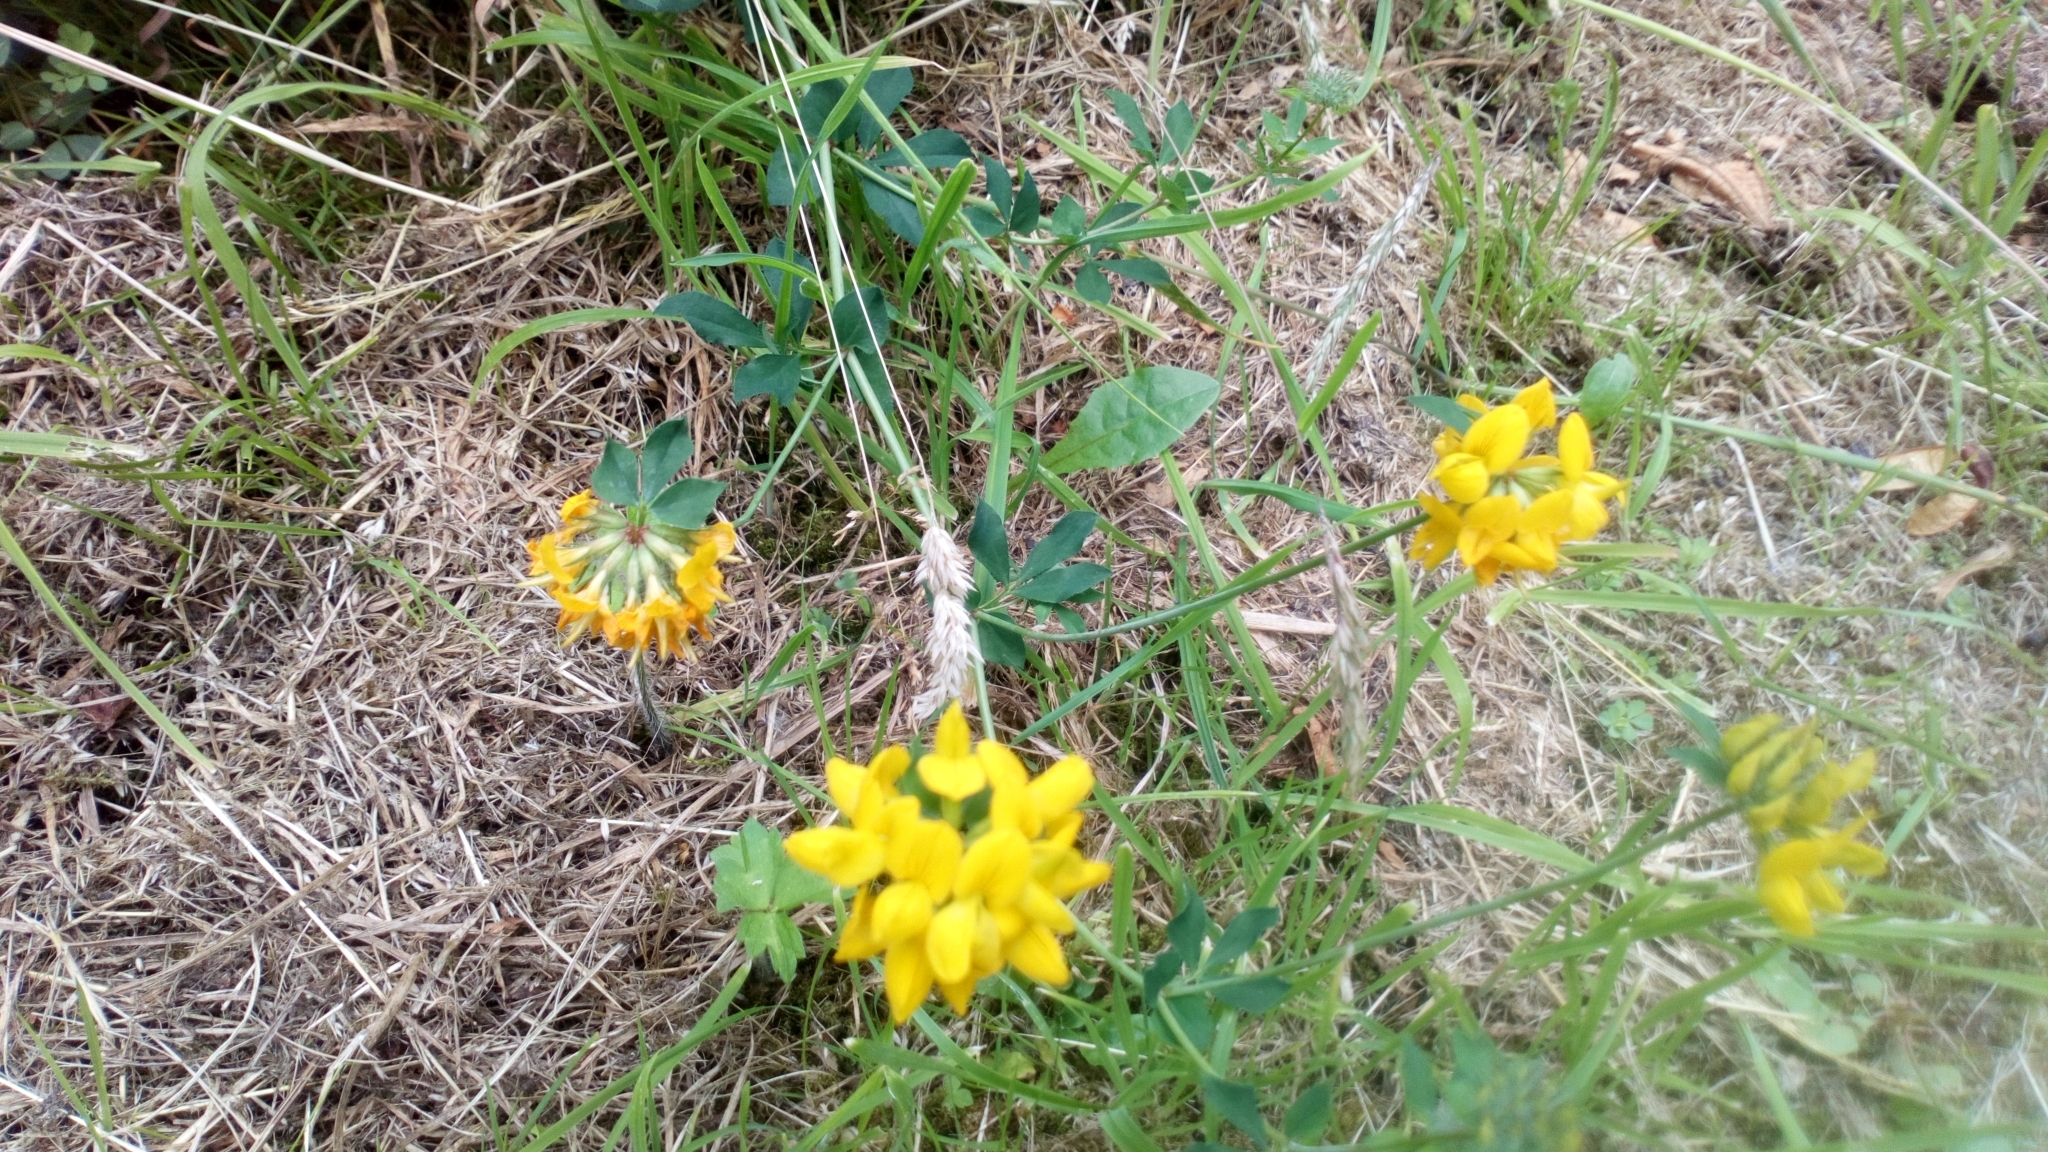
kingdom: Plantae
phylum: Tracheophyta
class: Magnoliopsida
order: Fabales
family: Fabaceae
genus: Lotus
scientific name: Lotus pedunculatus
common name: Greater birdsfoot-trefoil
